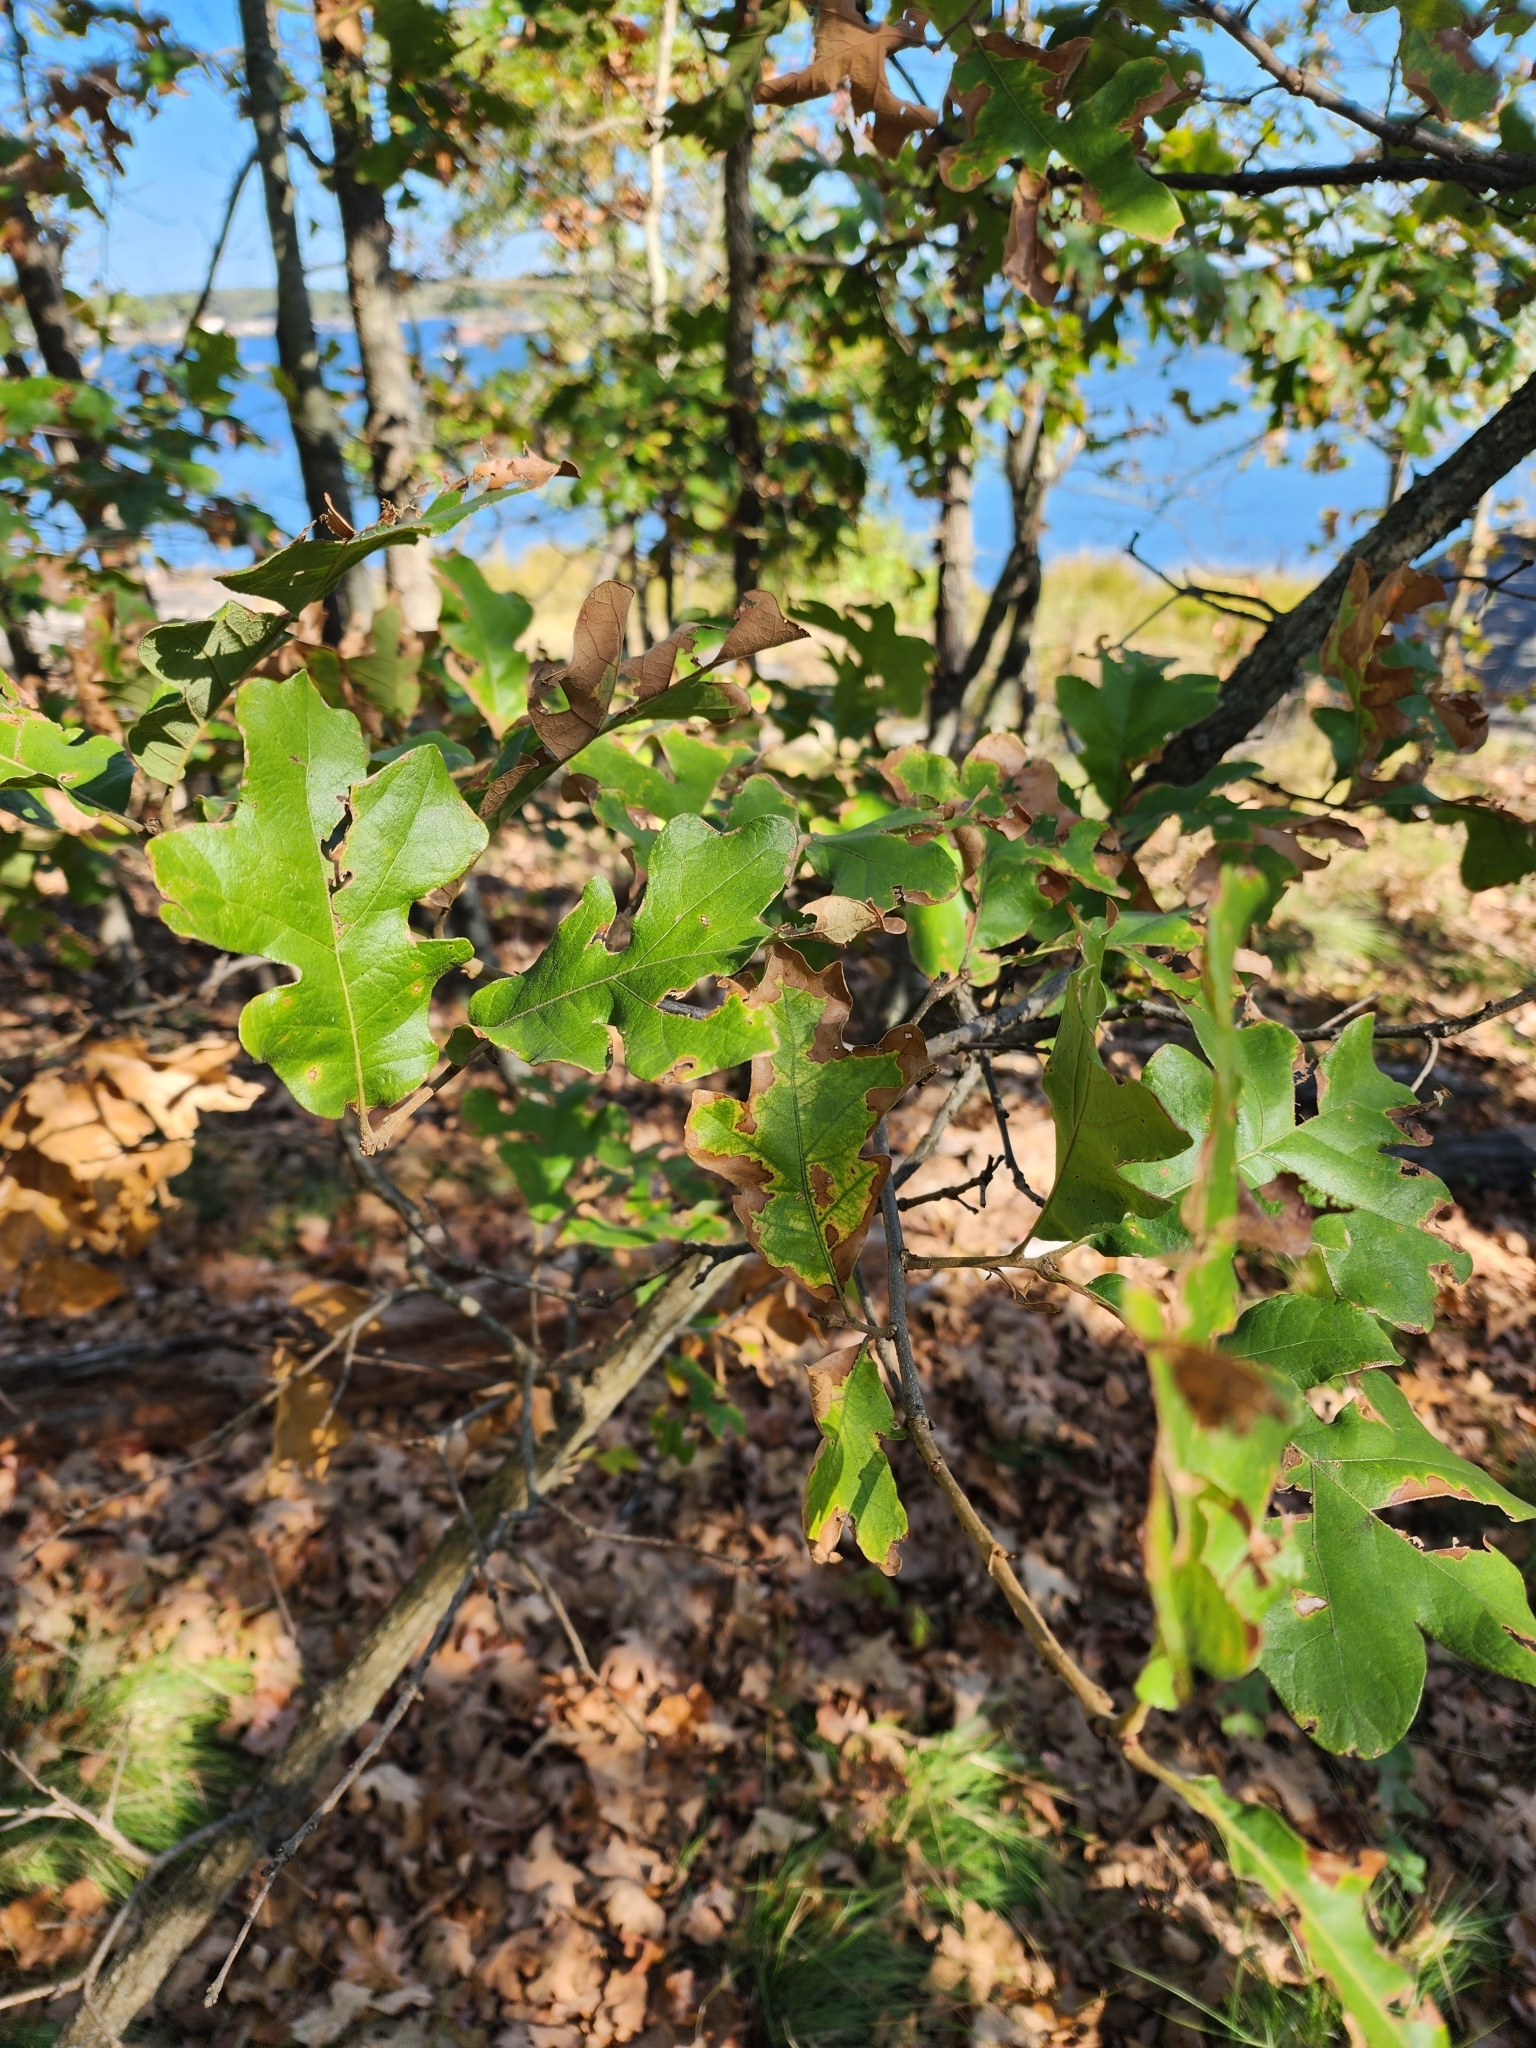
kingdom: Plantae
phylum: Tracheophyta
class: Magnoliopsida
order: Fagales
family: Fagaceae
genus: Quercus
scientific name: Quercus stellata
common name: Post oak
